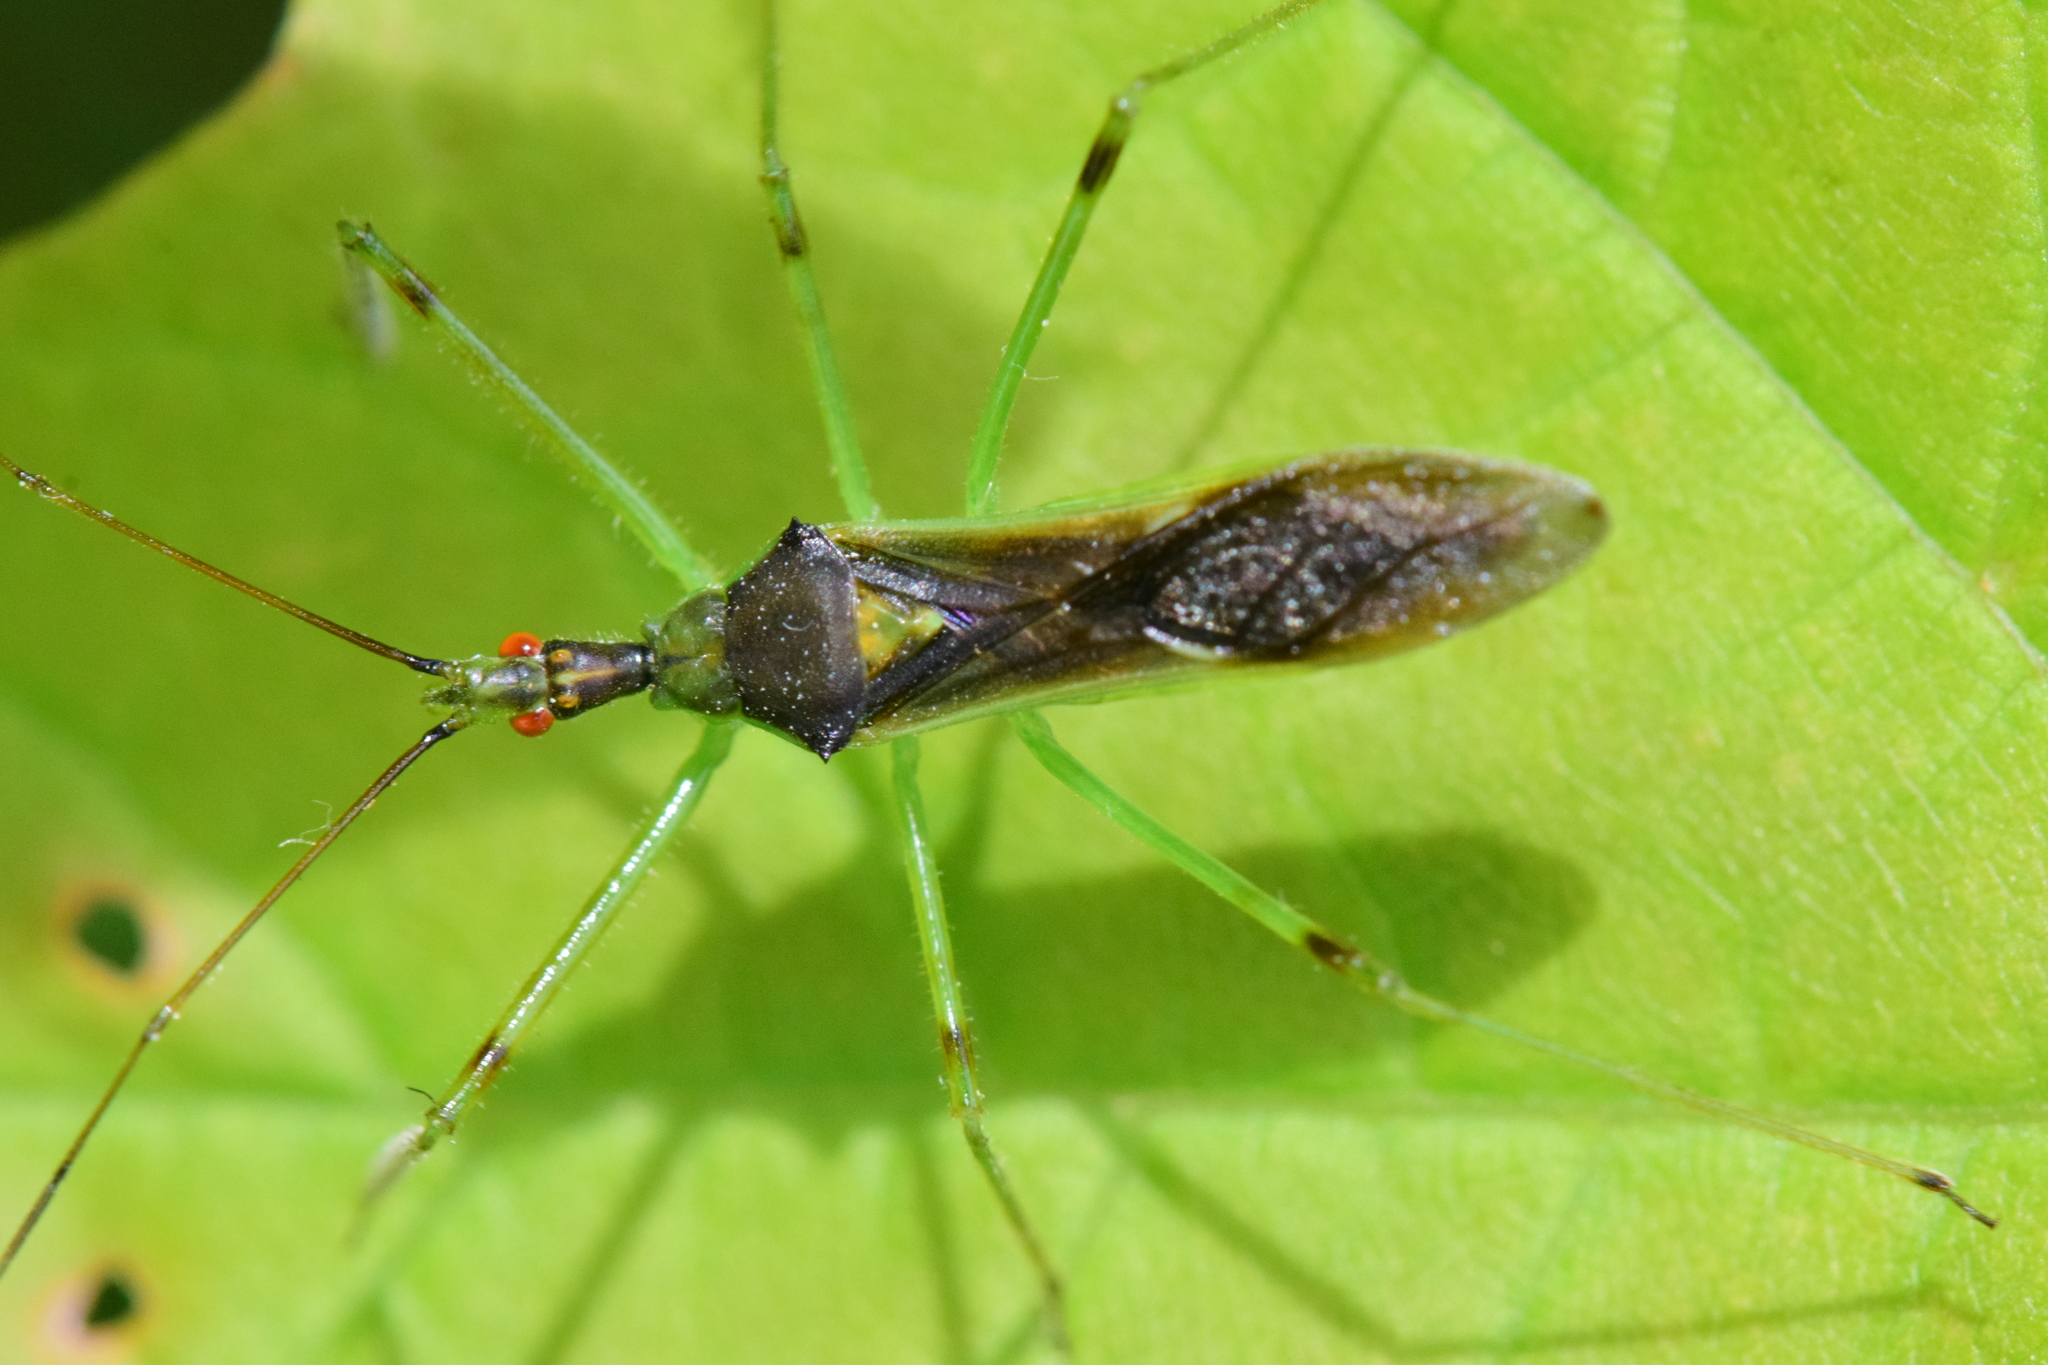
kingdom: Animalia
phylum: Arthropoda
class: Insecta
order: Hemiptera
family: Reduviidae
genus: Zelus
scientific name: Zelus luridus
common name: Pale green assassin bug
